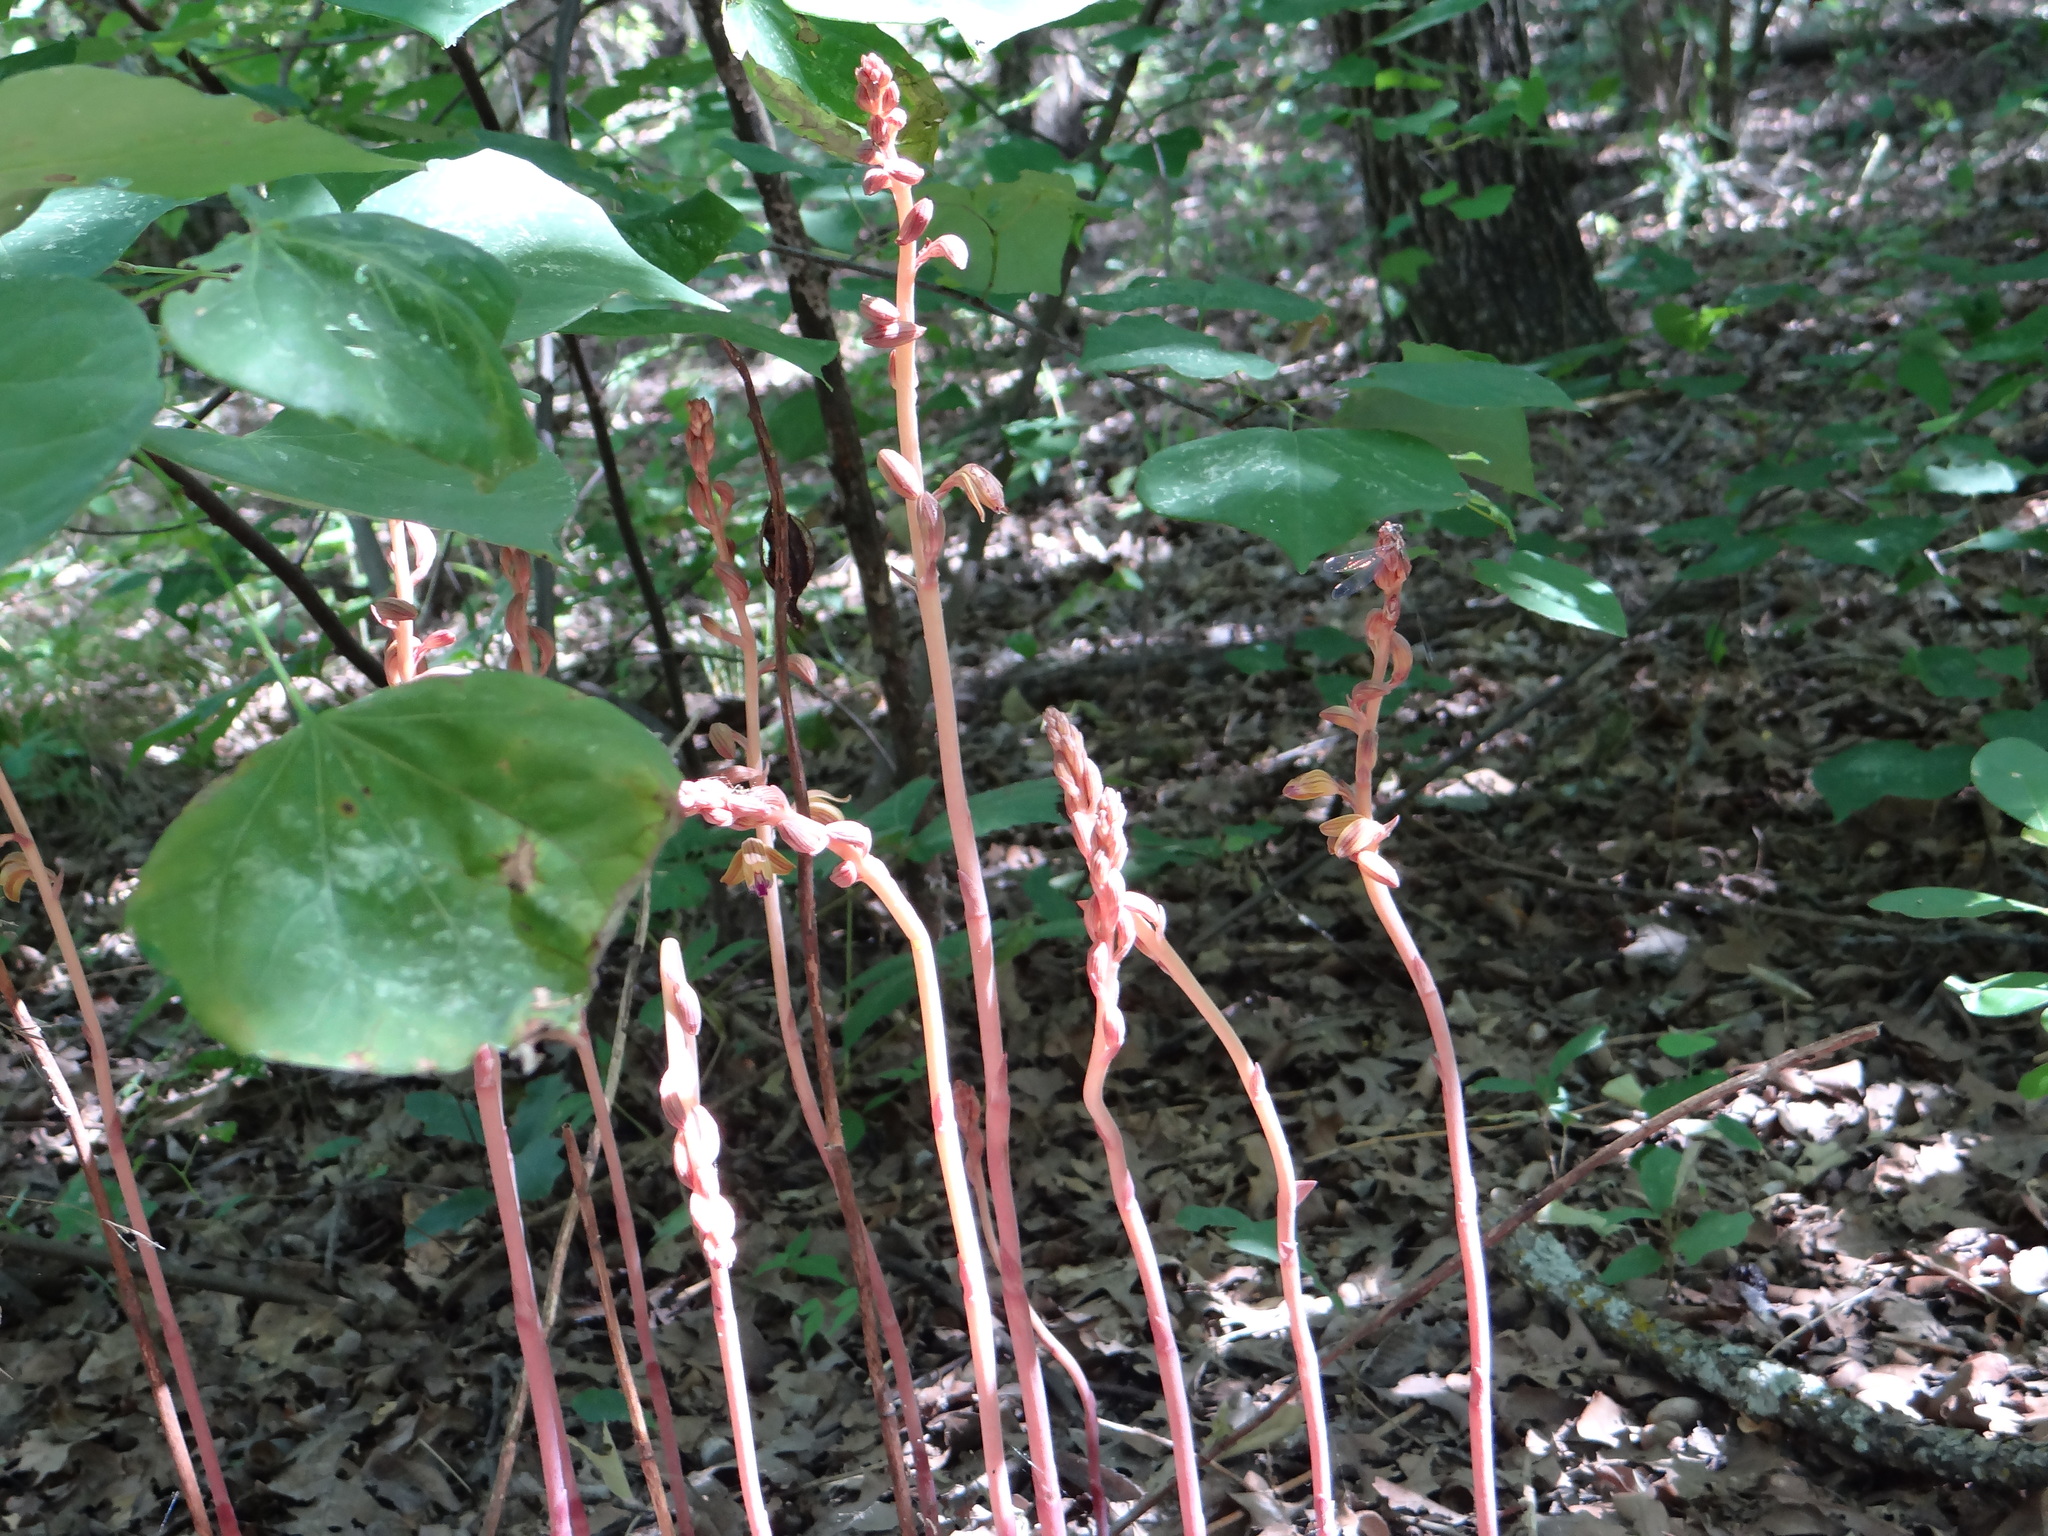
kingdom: Plantae
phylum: Tracheophyta
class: Liliopsida
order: Asparagales
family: Orchidaceae
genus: Bletia
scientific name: Bletia spicata
